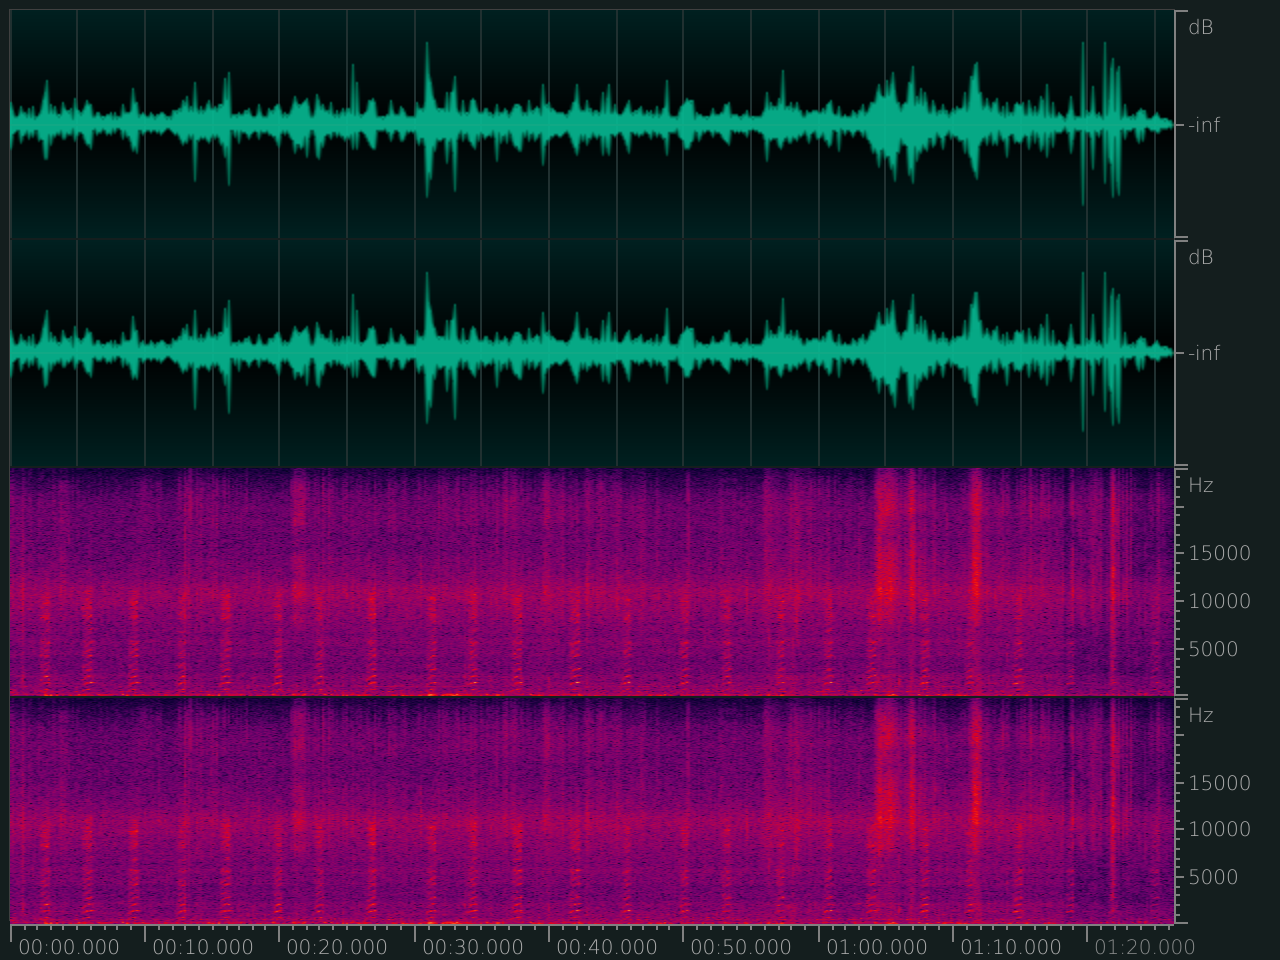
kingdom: Animalia
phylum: Chordata
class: Mammalia
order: Rodentia
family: Sciuridae
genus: Petaurista
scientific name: Petaurista petaurista
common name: Red giant flying squirrel
